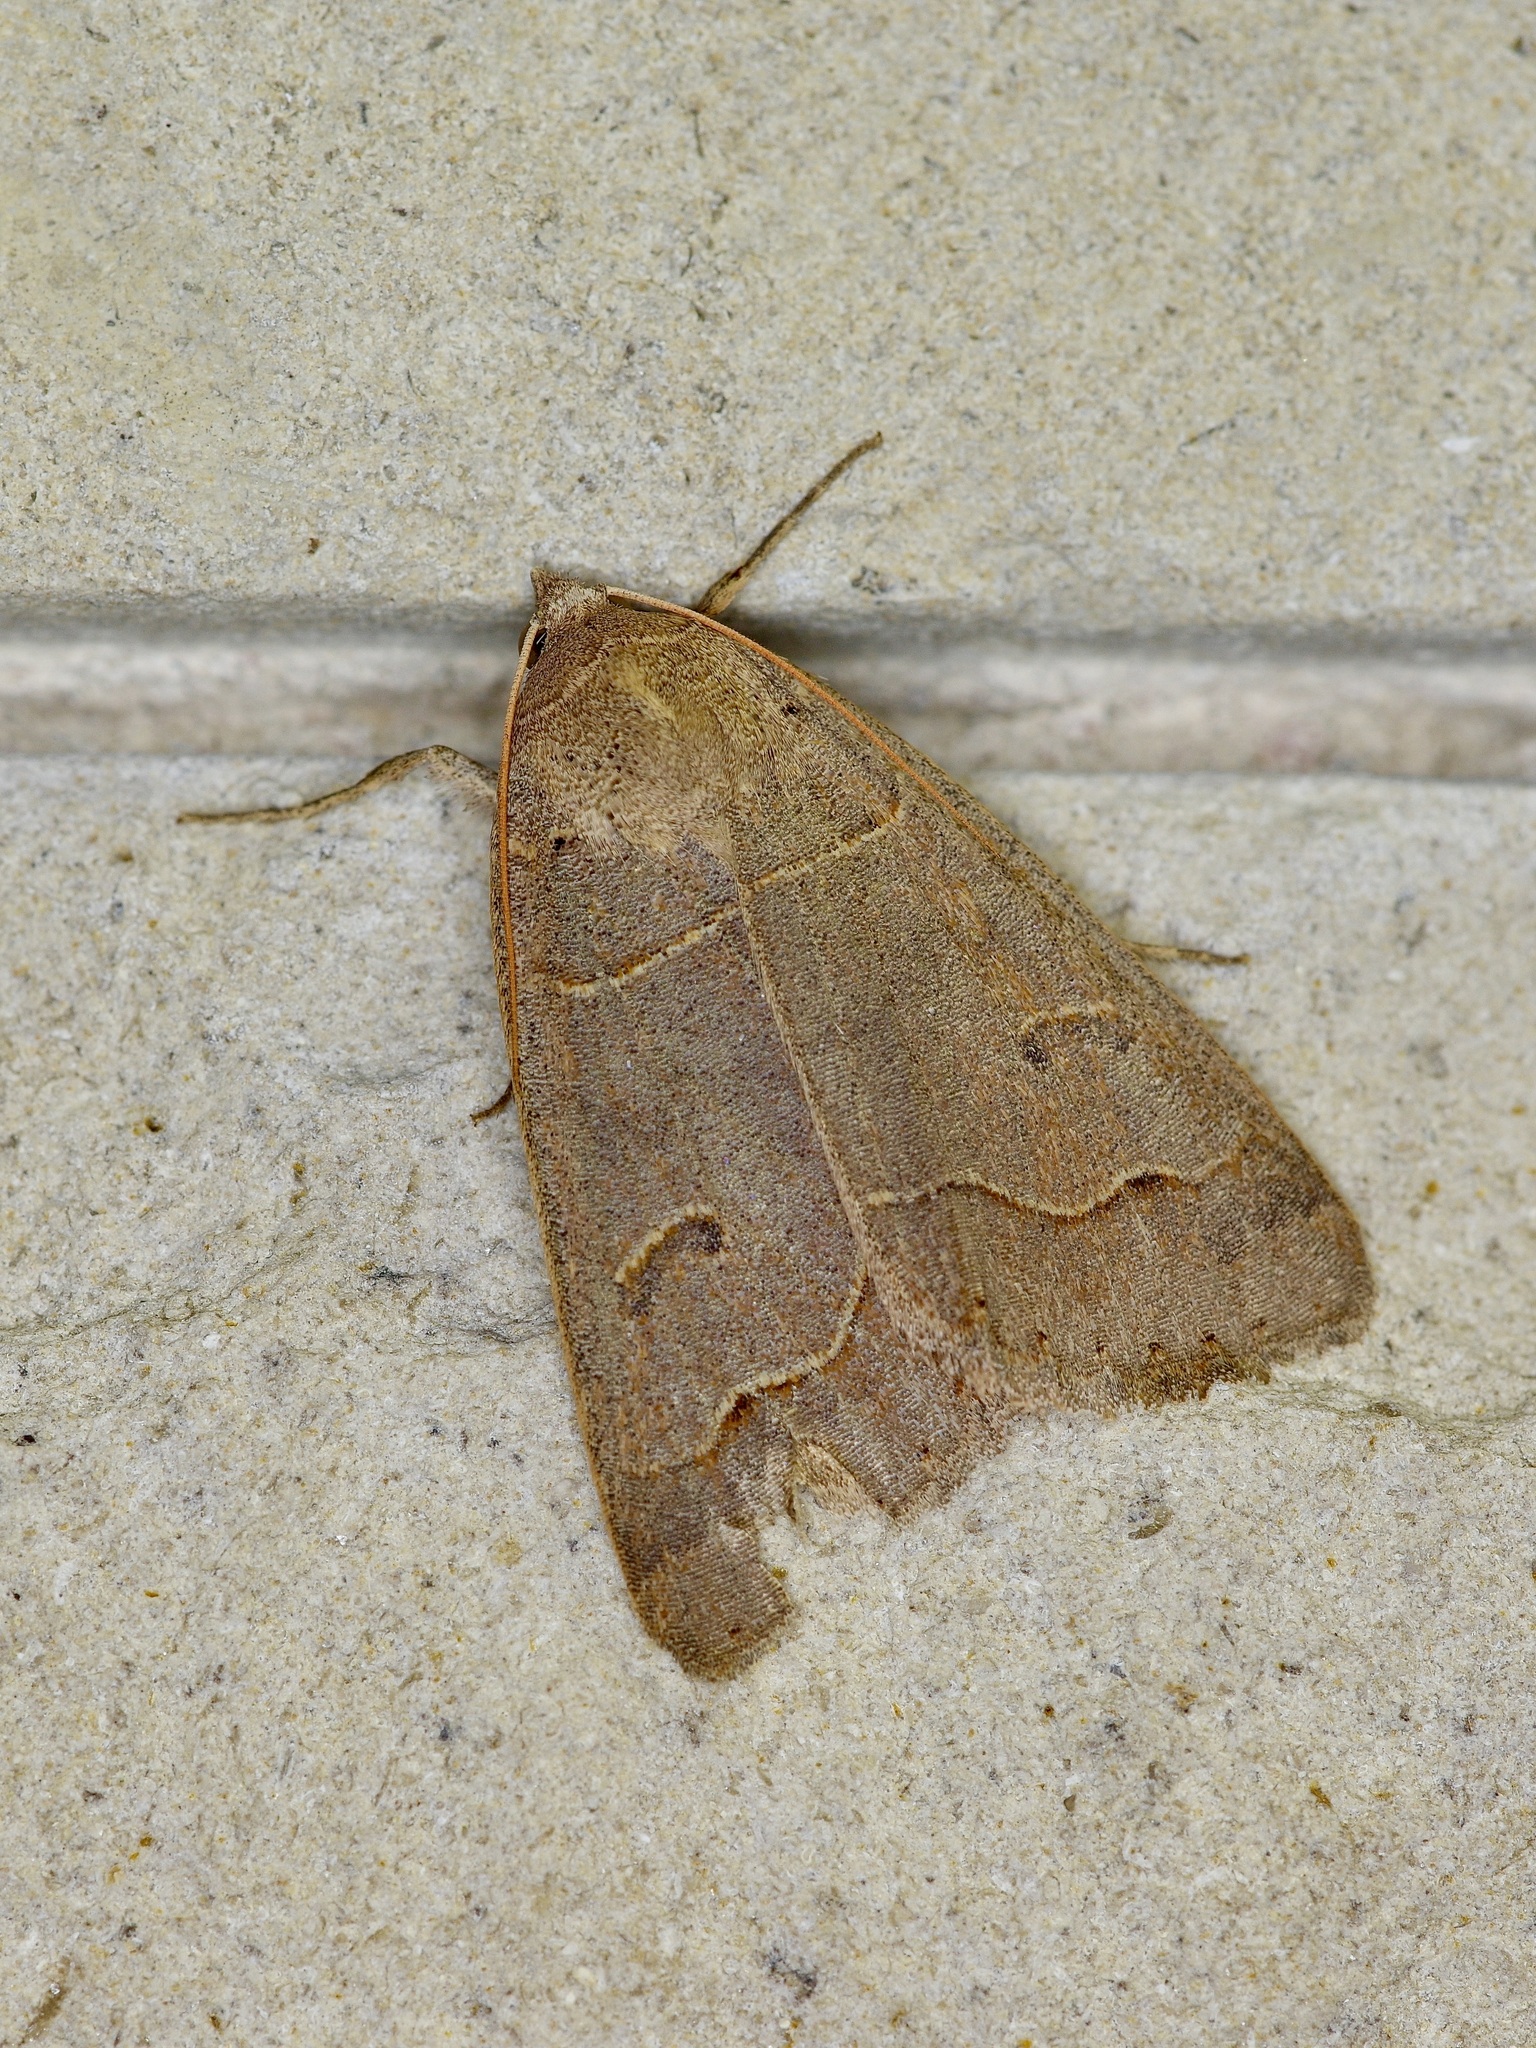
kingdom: Animalia
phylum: Arthropoda
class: Insecta
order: Lepidoptera
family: Erebidae
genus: Phoberia
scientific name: Phoberia atomaris
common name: Common oak moth
